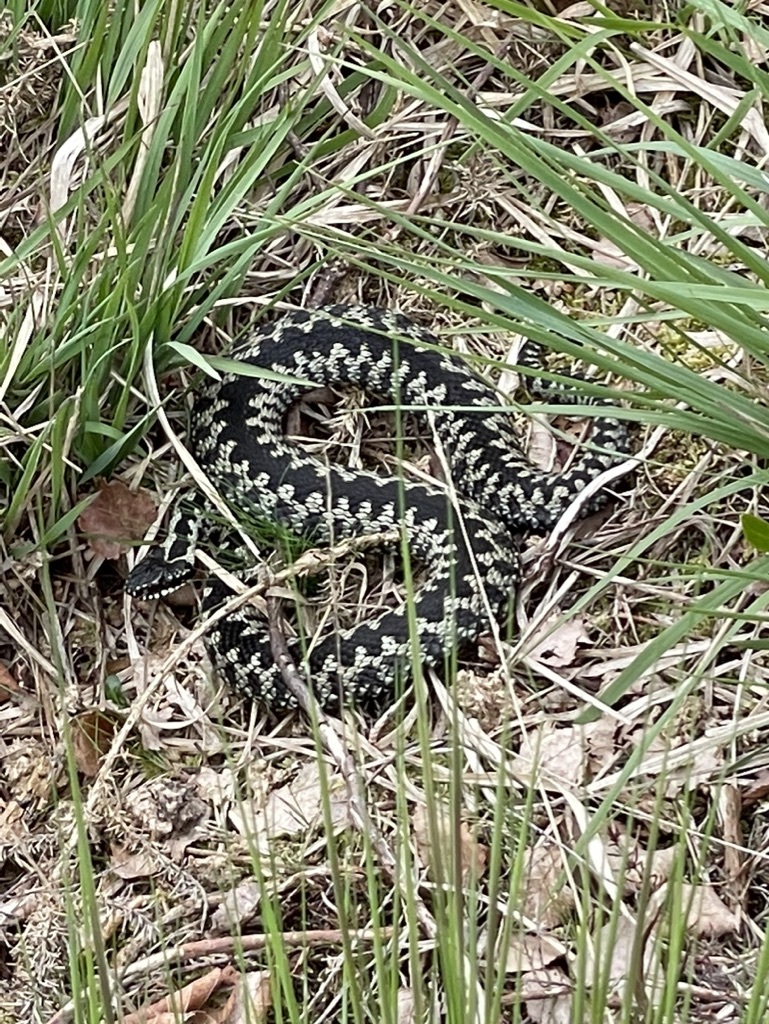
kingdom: Animalia
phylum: Chordata
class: Squamata
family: Viperidae
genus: Vipera
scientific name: Vipera berus
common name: Adder
